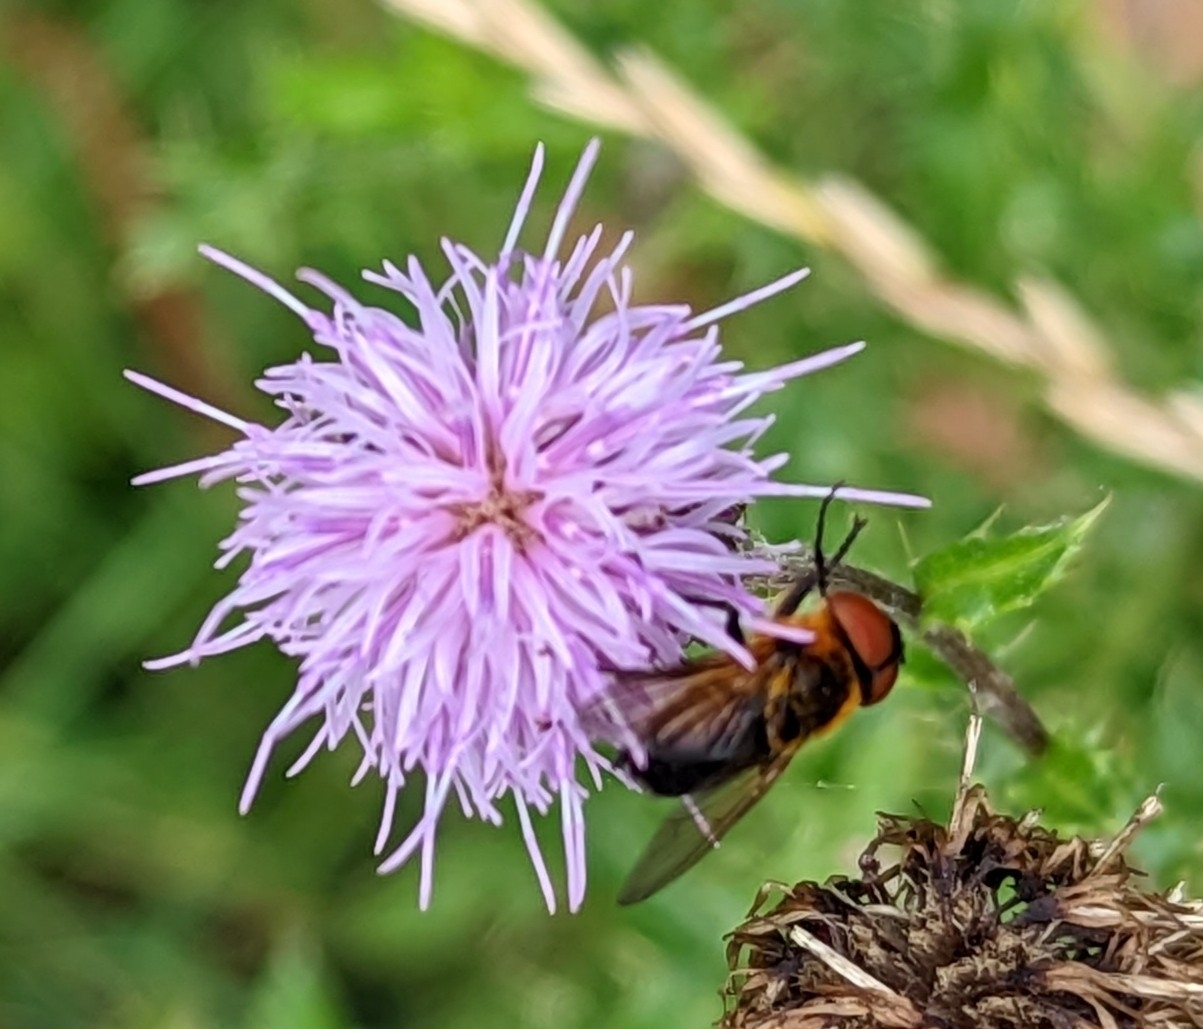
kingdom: Animalia
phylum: Arthropoda
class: Insecta
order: Diptera
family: Tachinidae
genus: Phasia
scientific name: Phasia hemiptera
